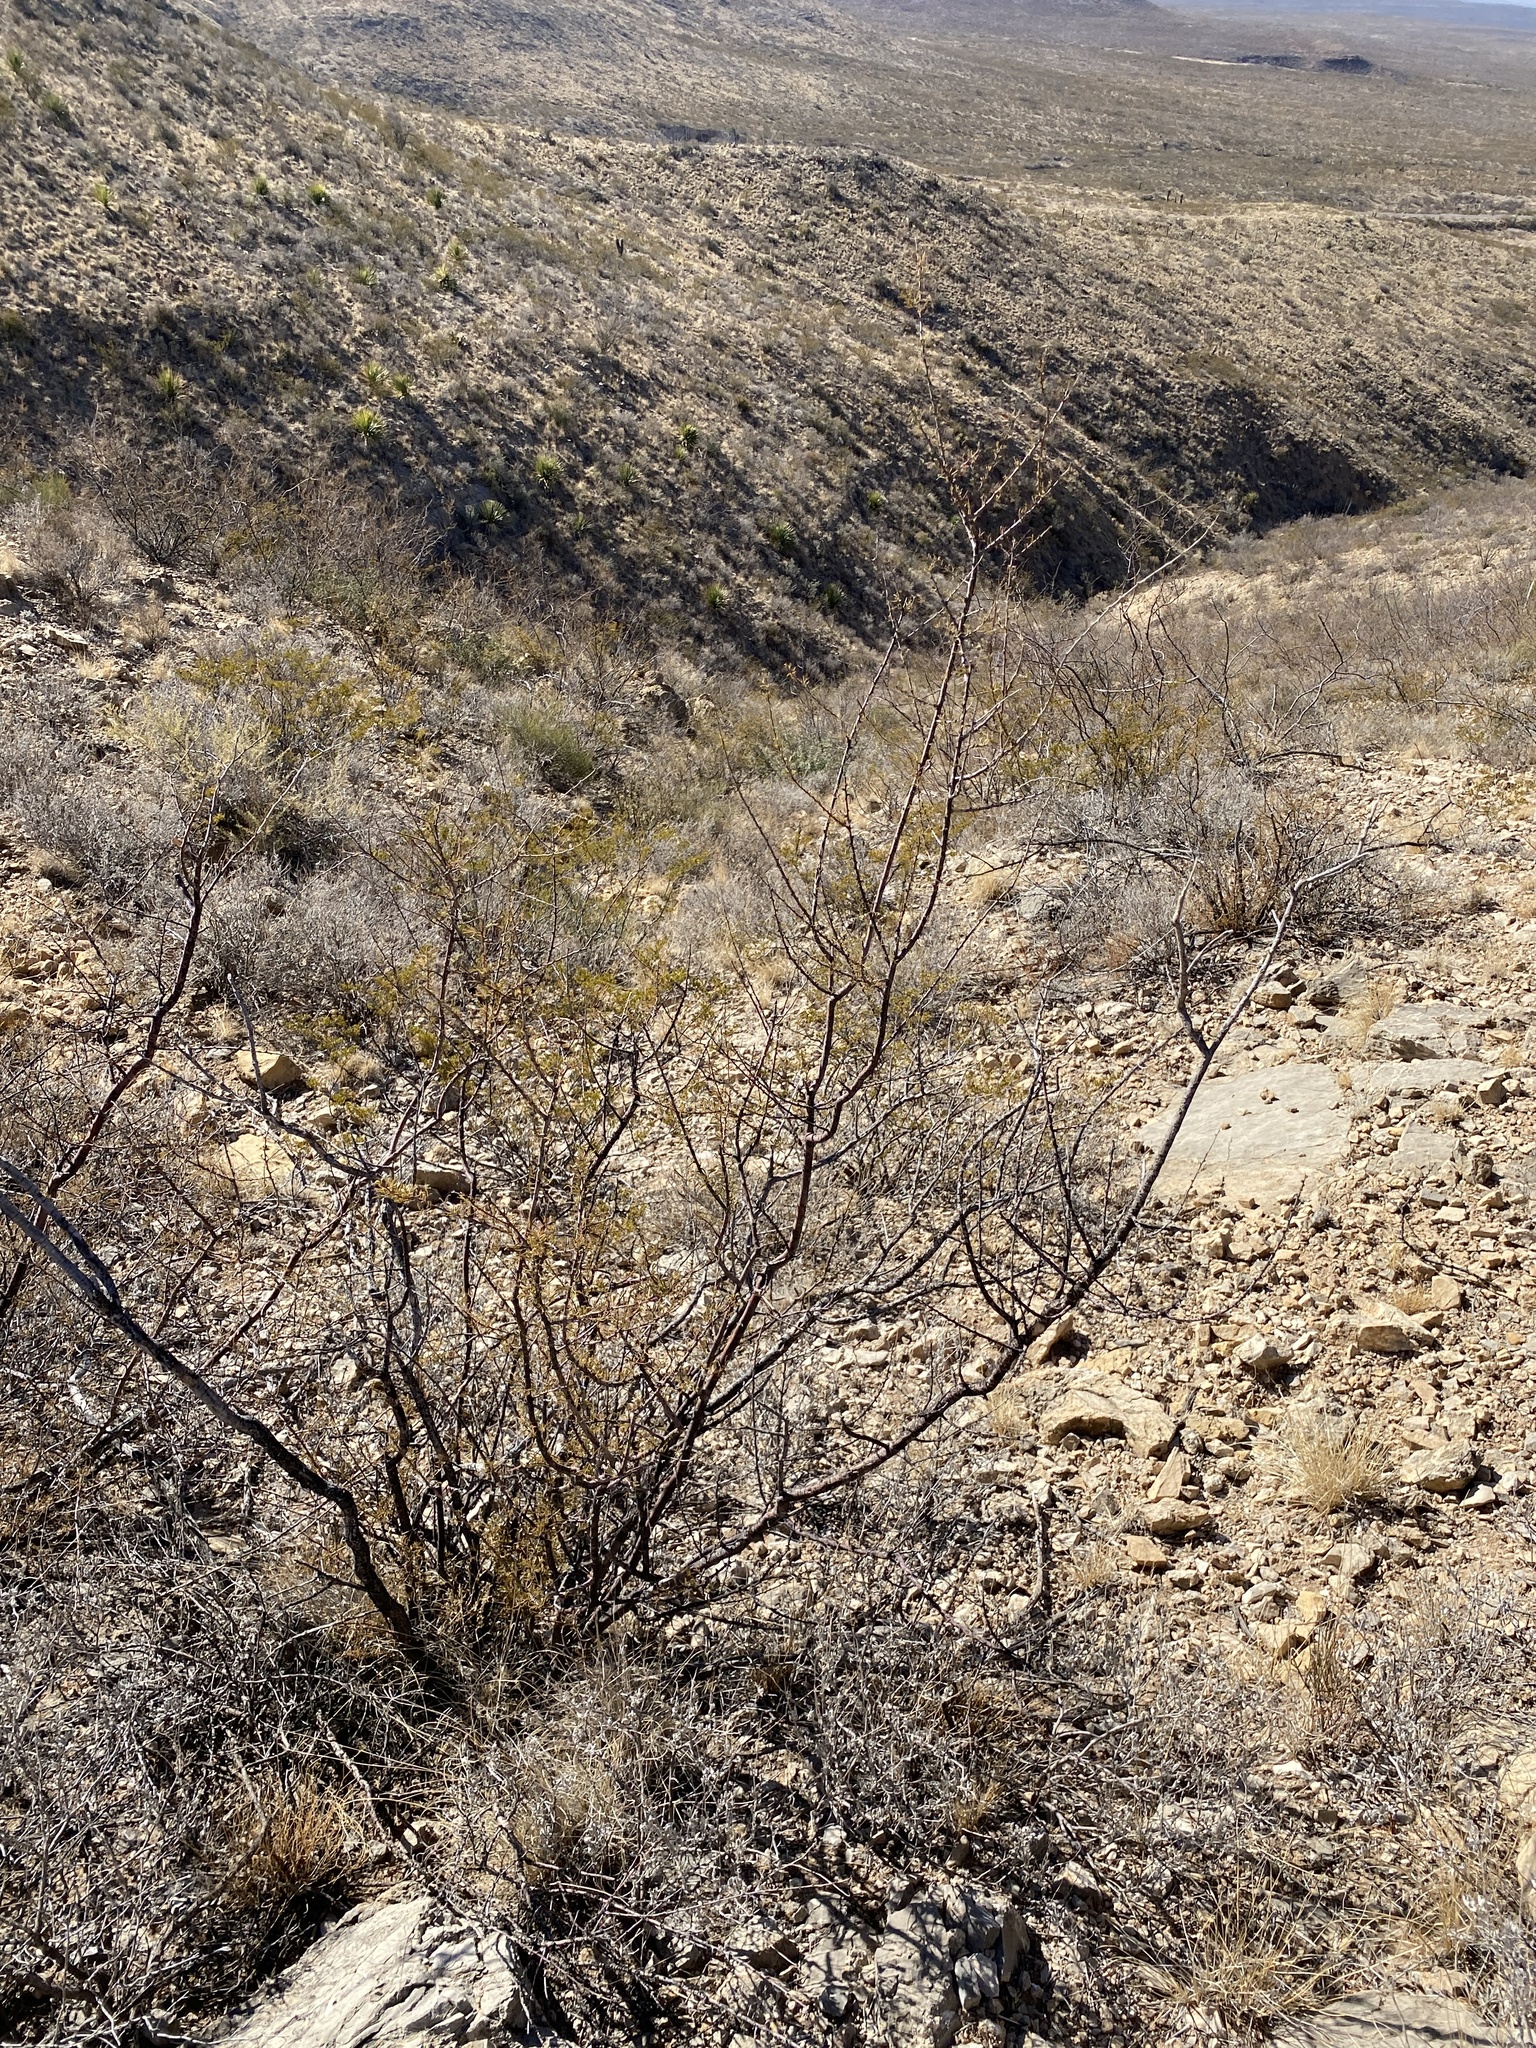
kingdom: Plantae
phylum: Tracheophyta
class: Magnoliopsida
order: Fabales
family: Fabaceae
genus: Vachellia
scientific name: Vachellia constricta
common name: Mescat acacia
